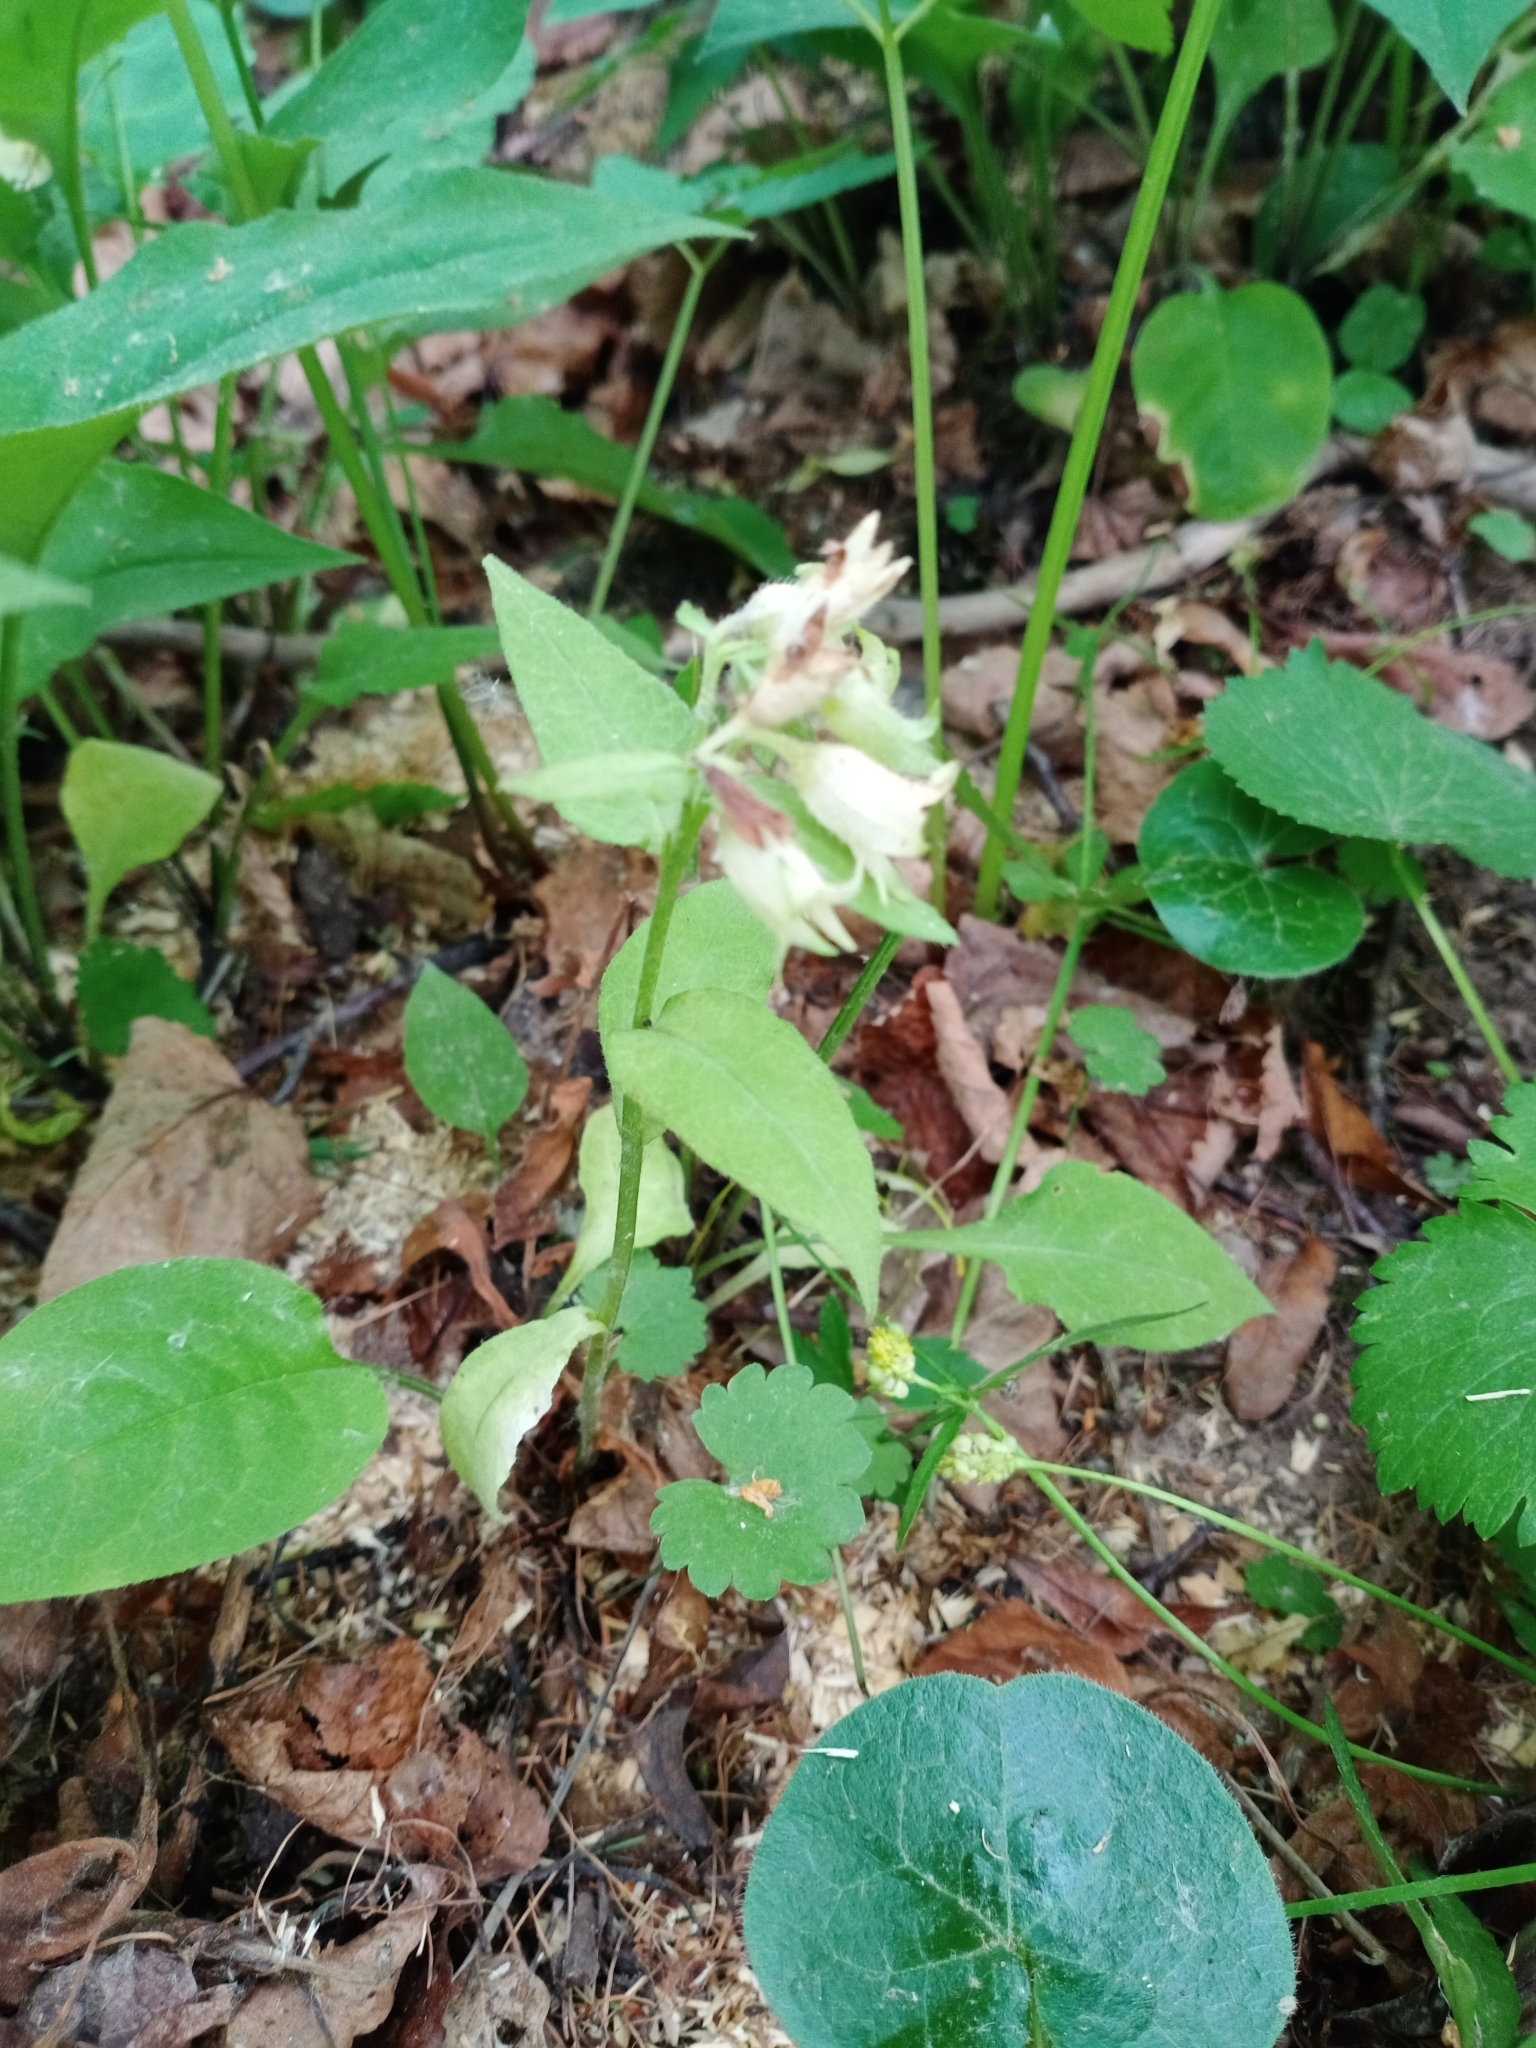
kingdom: Plantae
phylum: Tracheophyta
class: Magnoliopsida
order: Boraginales
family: Boraginaceae
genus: Pulmonaria
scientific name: Pulmonaria obscura
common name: Suffolk lungwort
